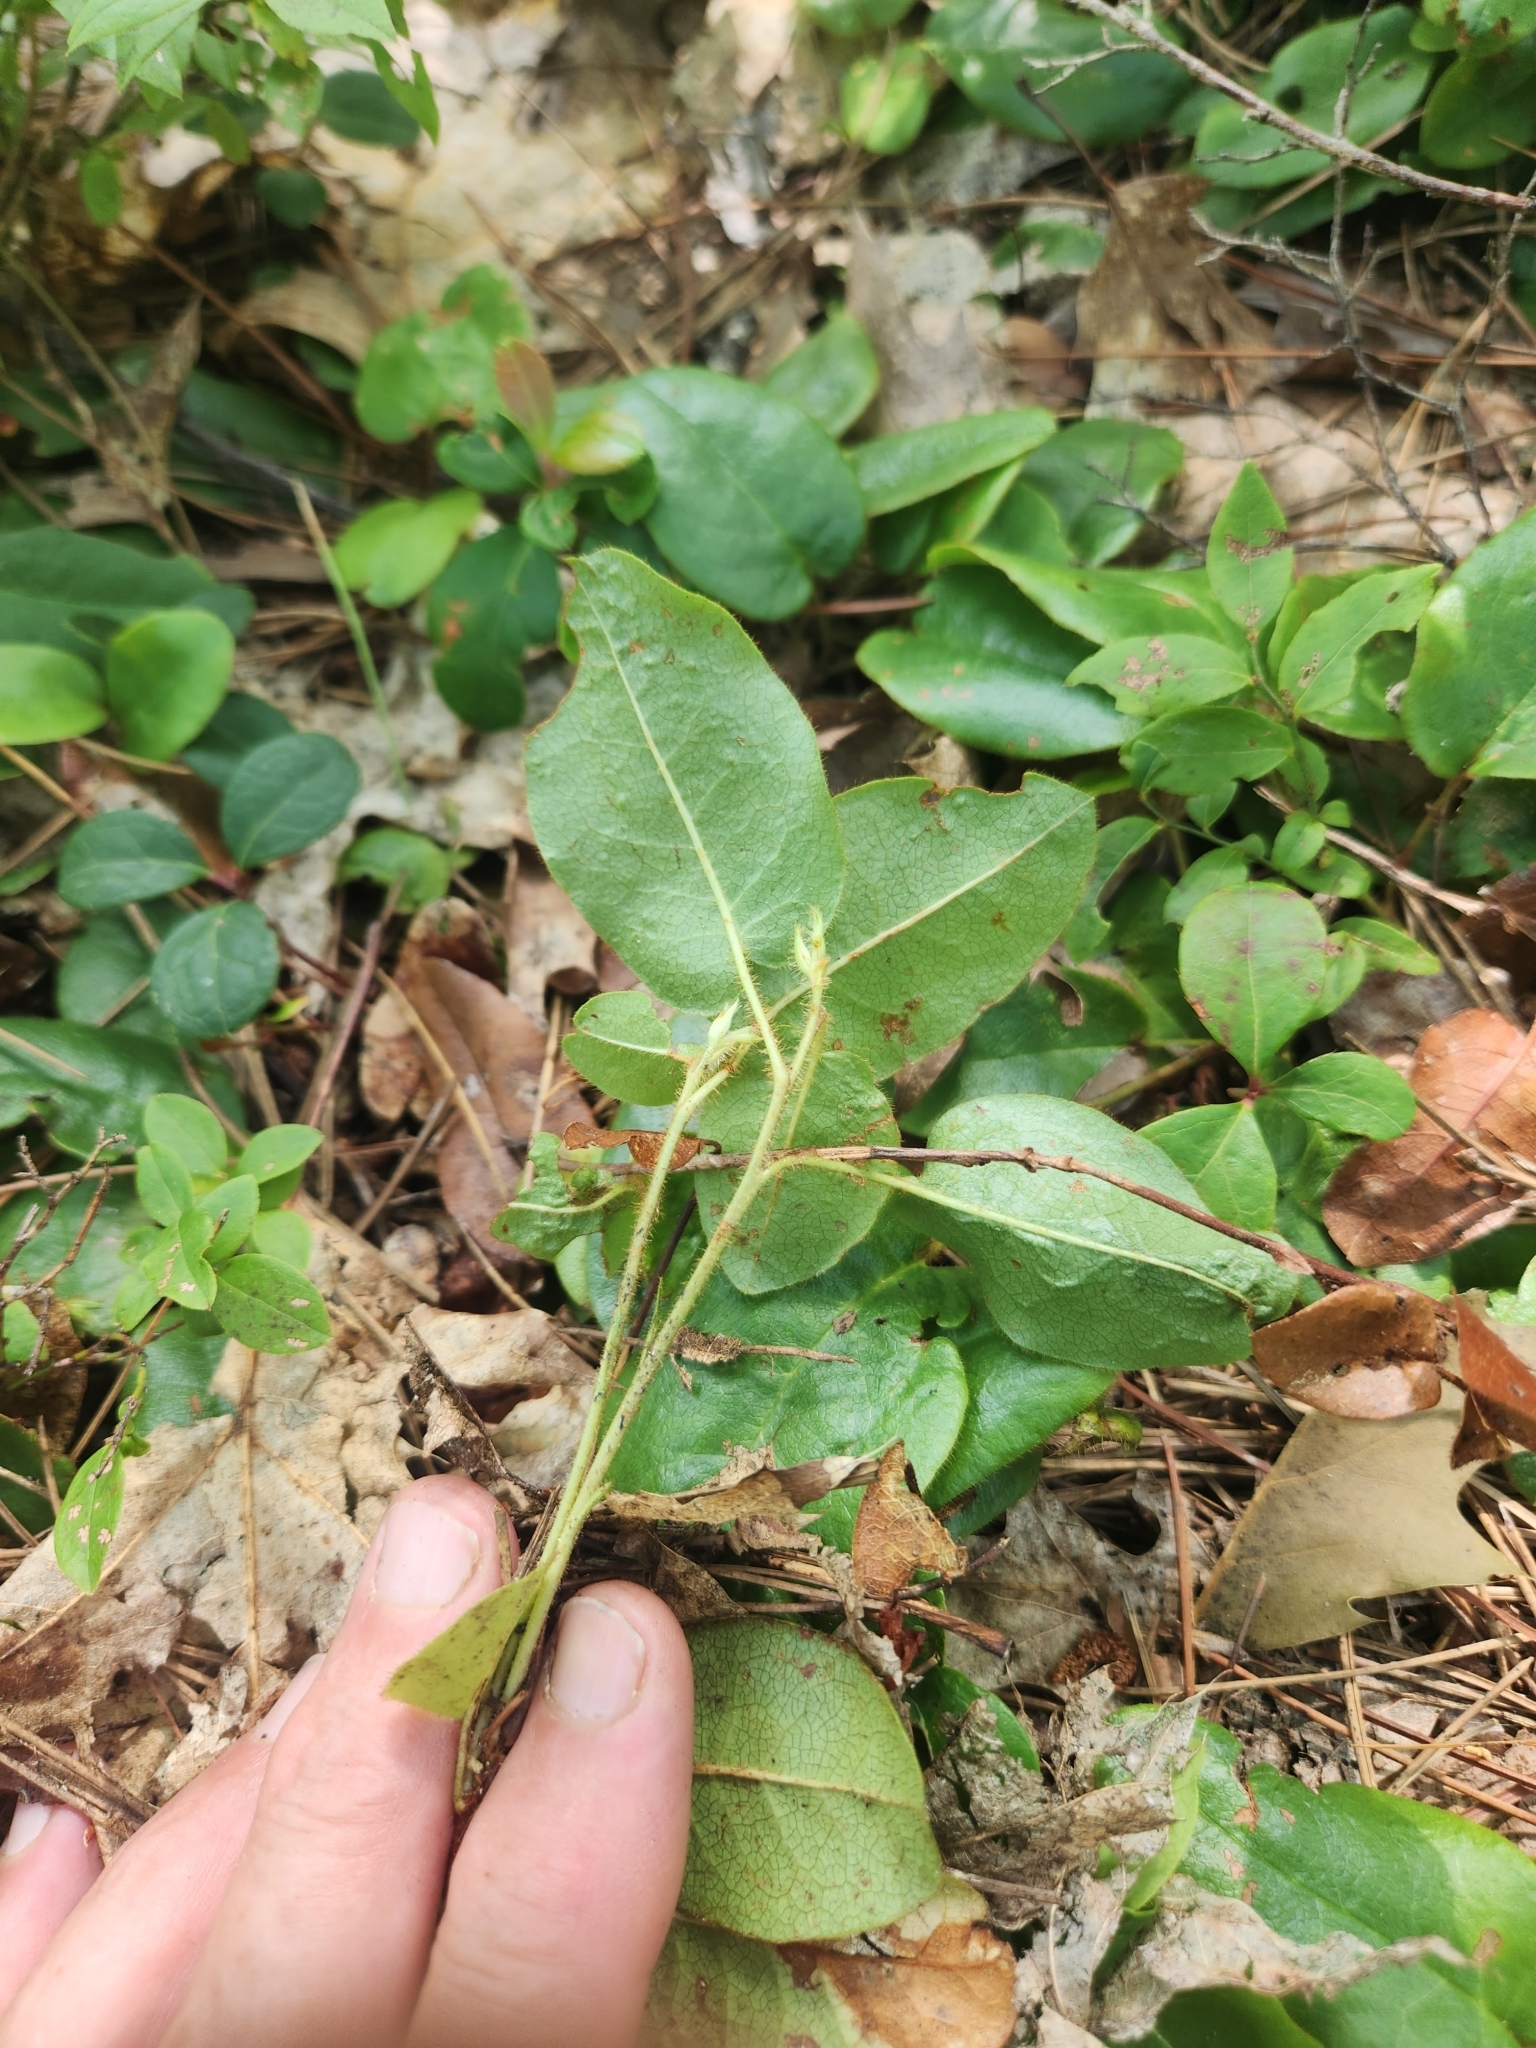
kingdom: Plantae
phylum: Tracheophyta
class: Magnoliopsida
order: Ericales
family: Ericaceae
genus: Epigaea
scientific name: Epigaea repens
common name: Gravelroot
